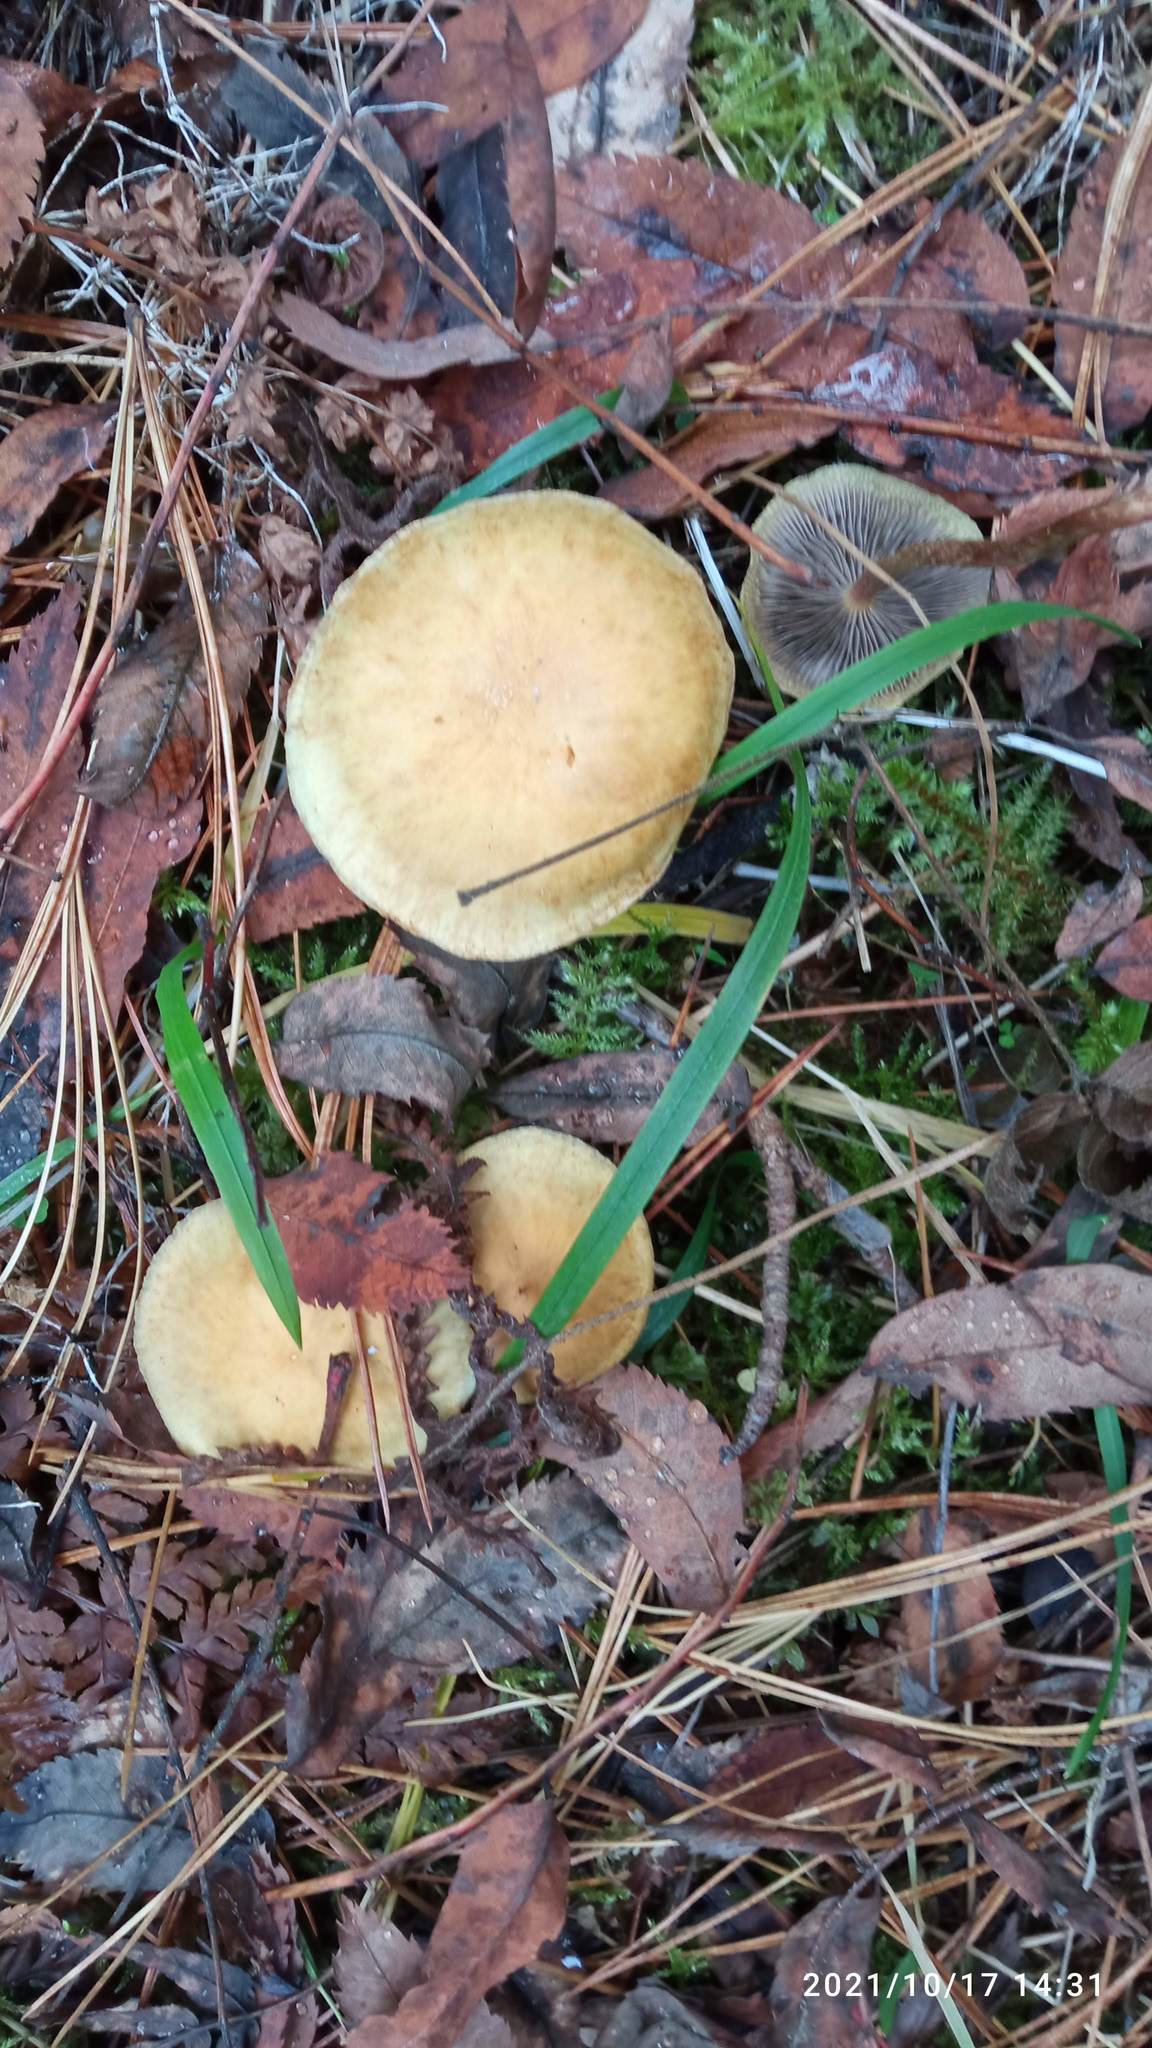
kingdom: Fungi
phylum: Basidiomycota
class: Agaricomycetes
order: Agaricales
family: Strophariaceae
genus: Hypholoma
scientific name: Hypholoma fasciculare
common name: Sulphur tuft
